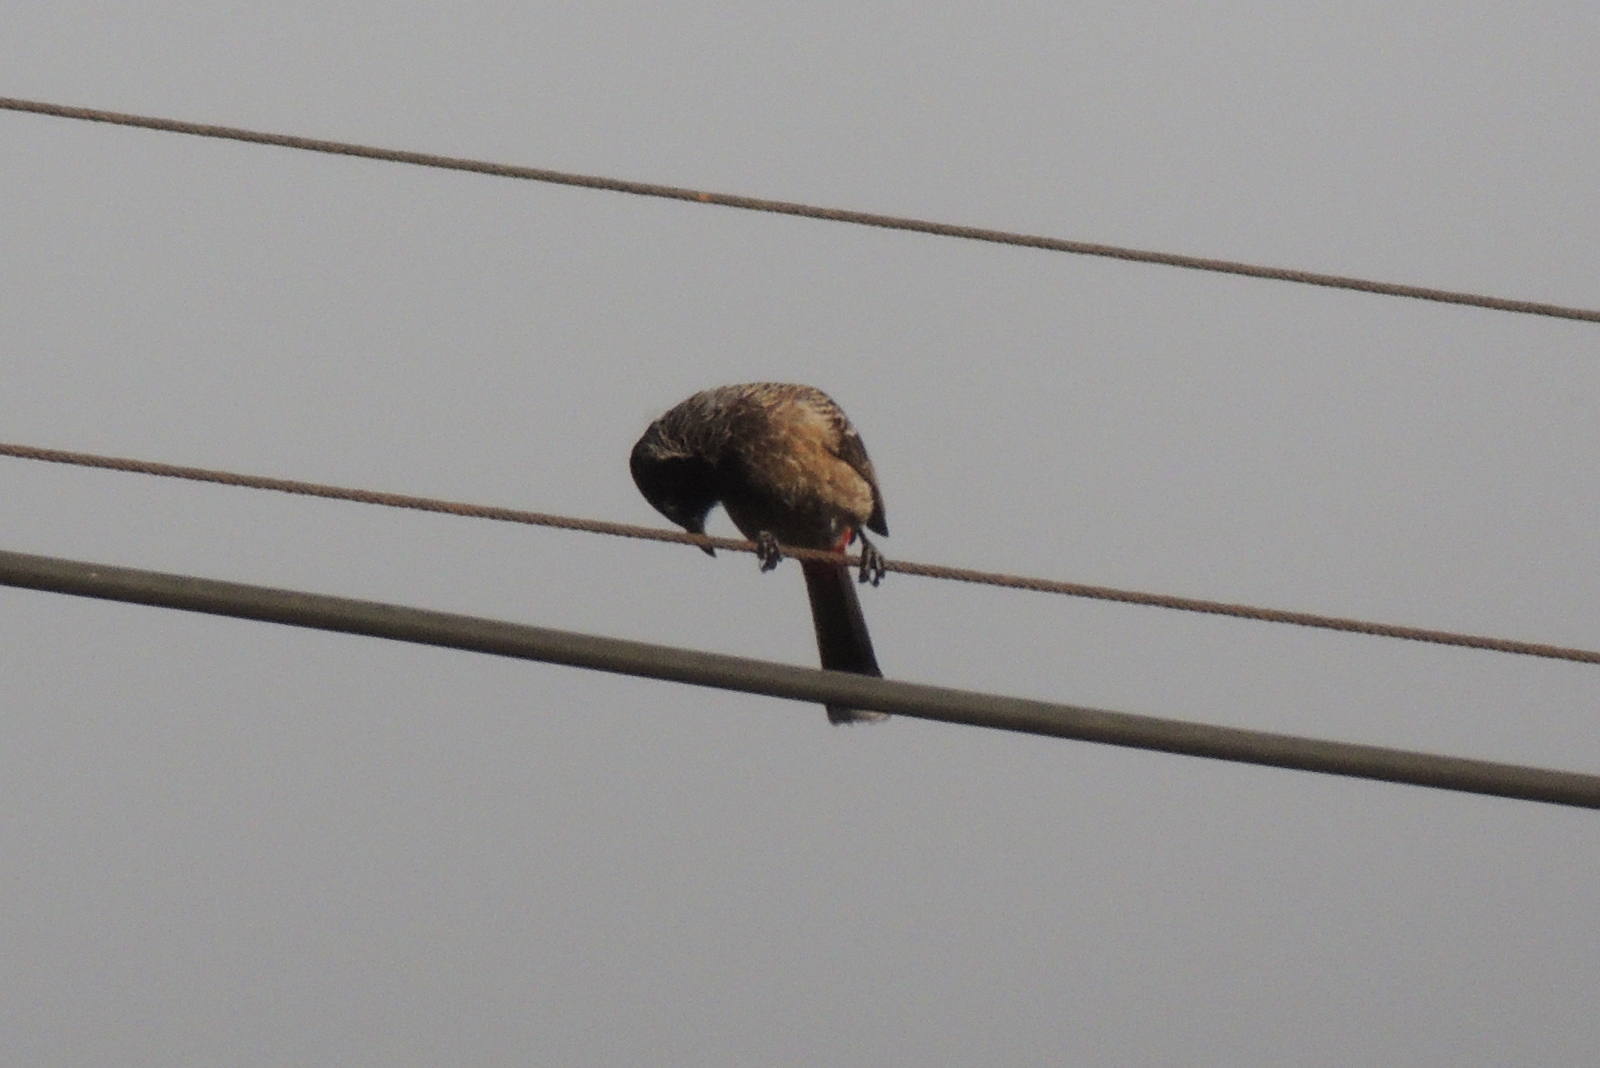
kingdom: Animalia
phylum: Chordata
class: Aves
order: Passeriformes
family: Pycnonotidae
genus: Pycnonotus
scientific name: Pycnonotus cafer
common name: Red-vented bulbul
